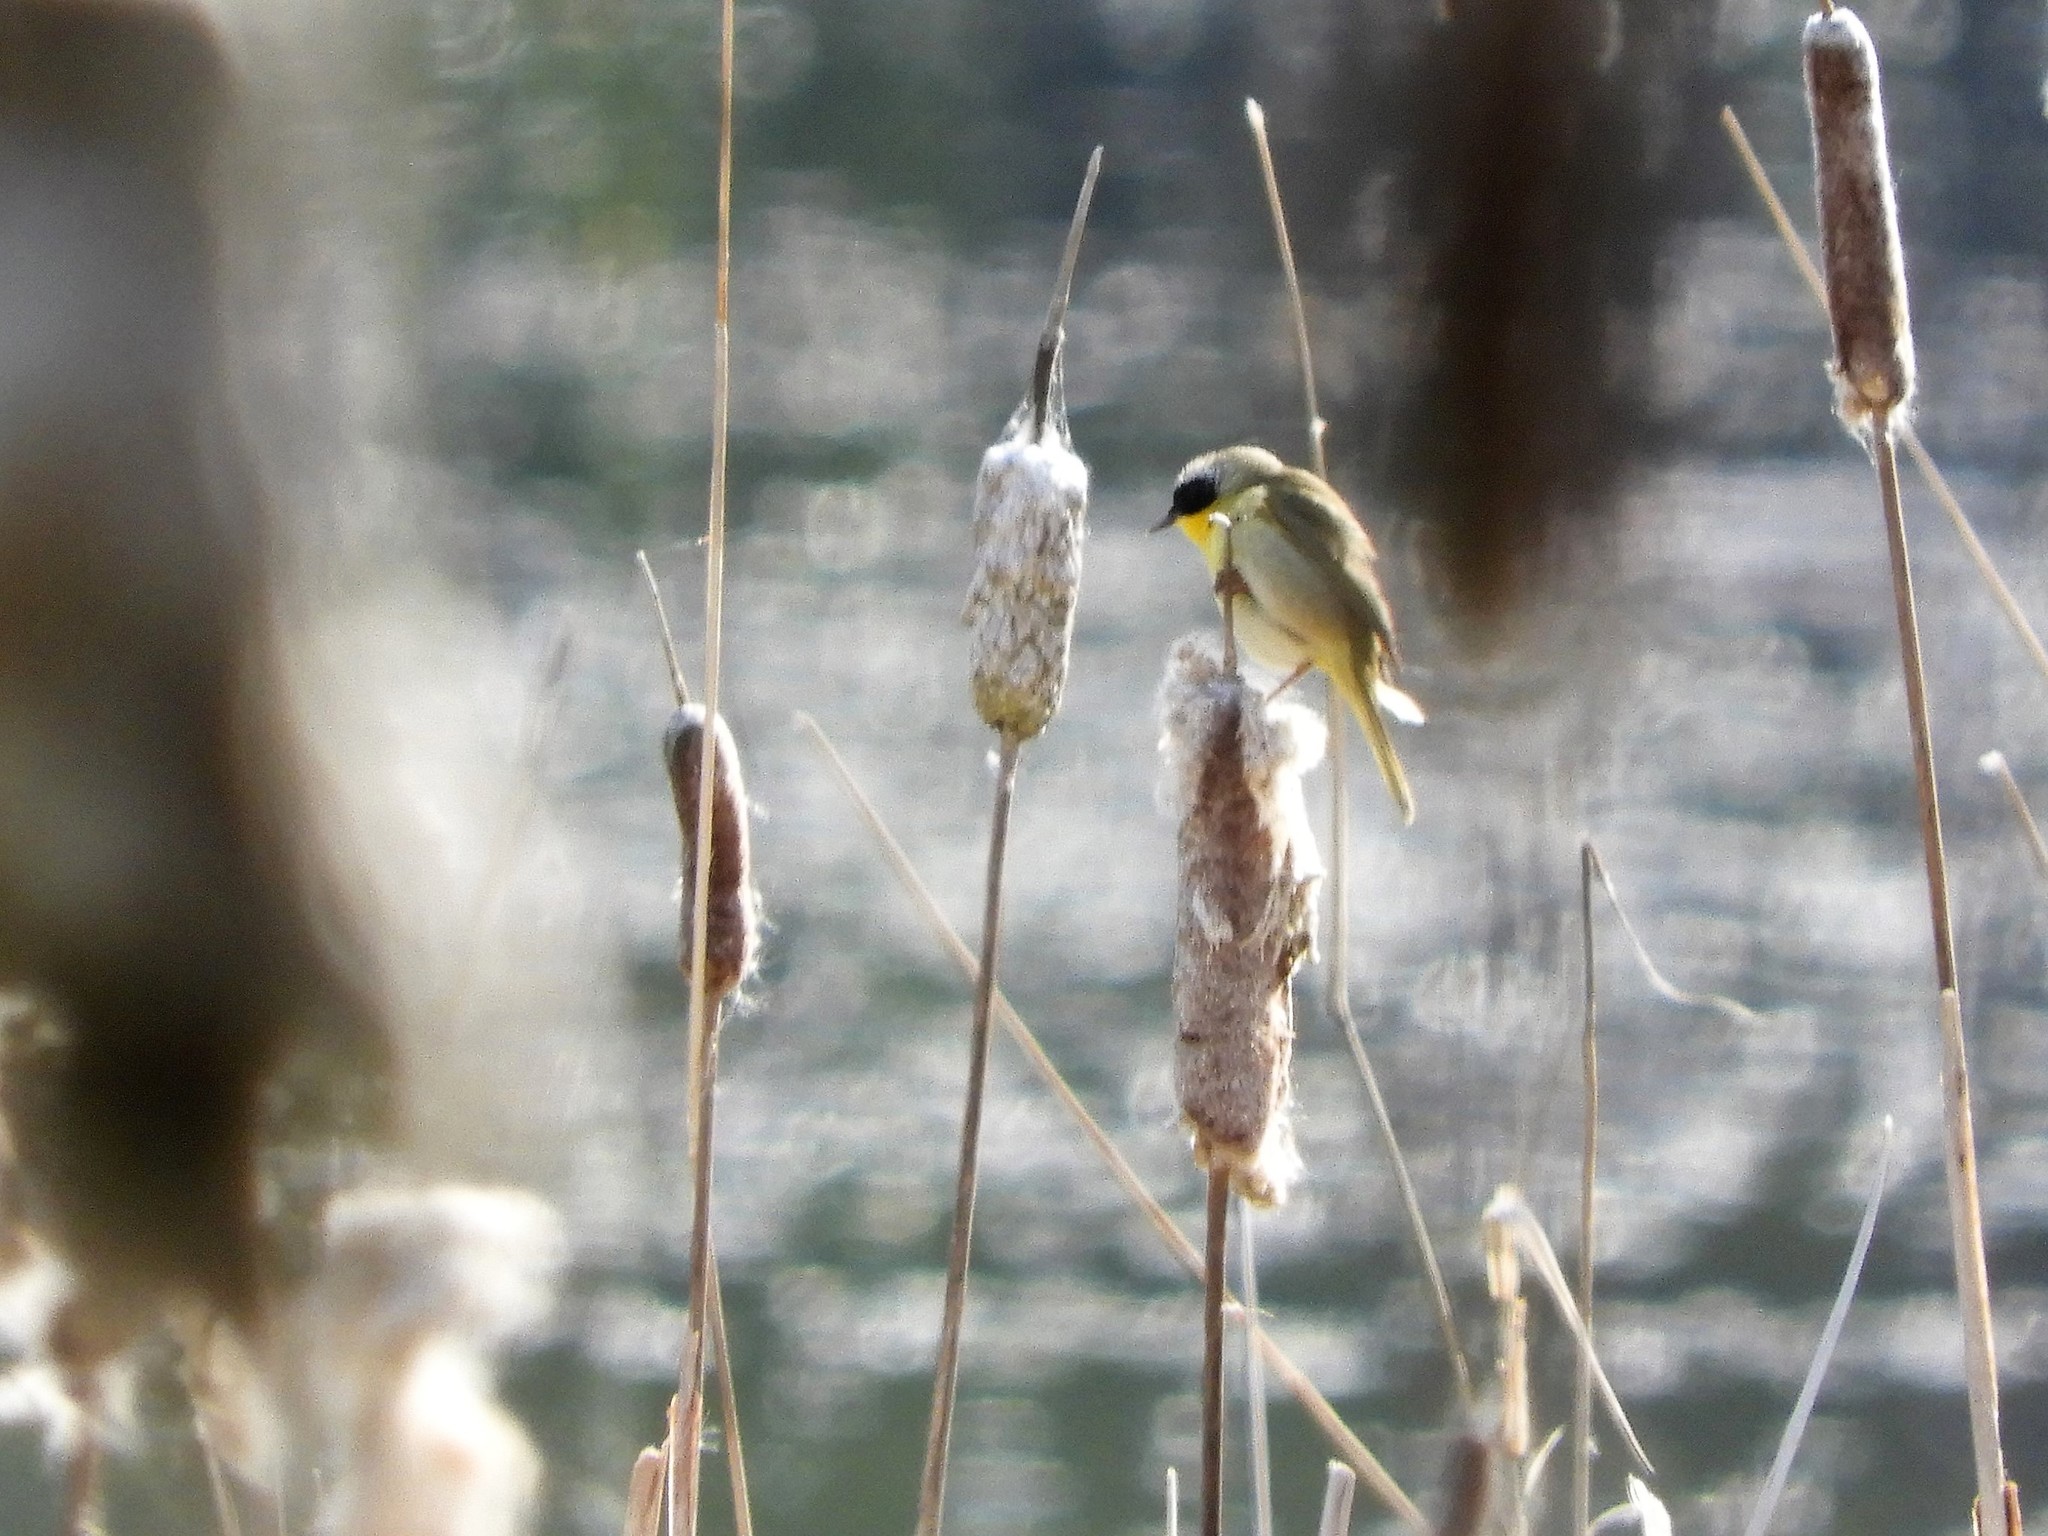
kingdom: Animalia
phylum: Chordata
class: Aves
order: Passeriformes
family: Parulidae
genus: Geothlypis
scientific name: Geothlypis trichas
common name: Common yellowthroat
